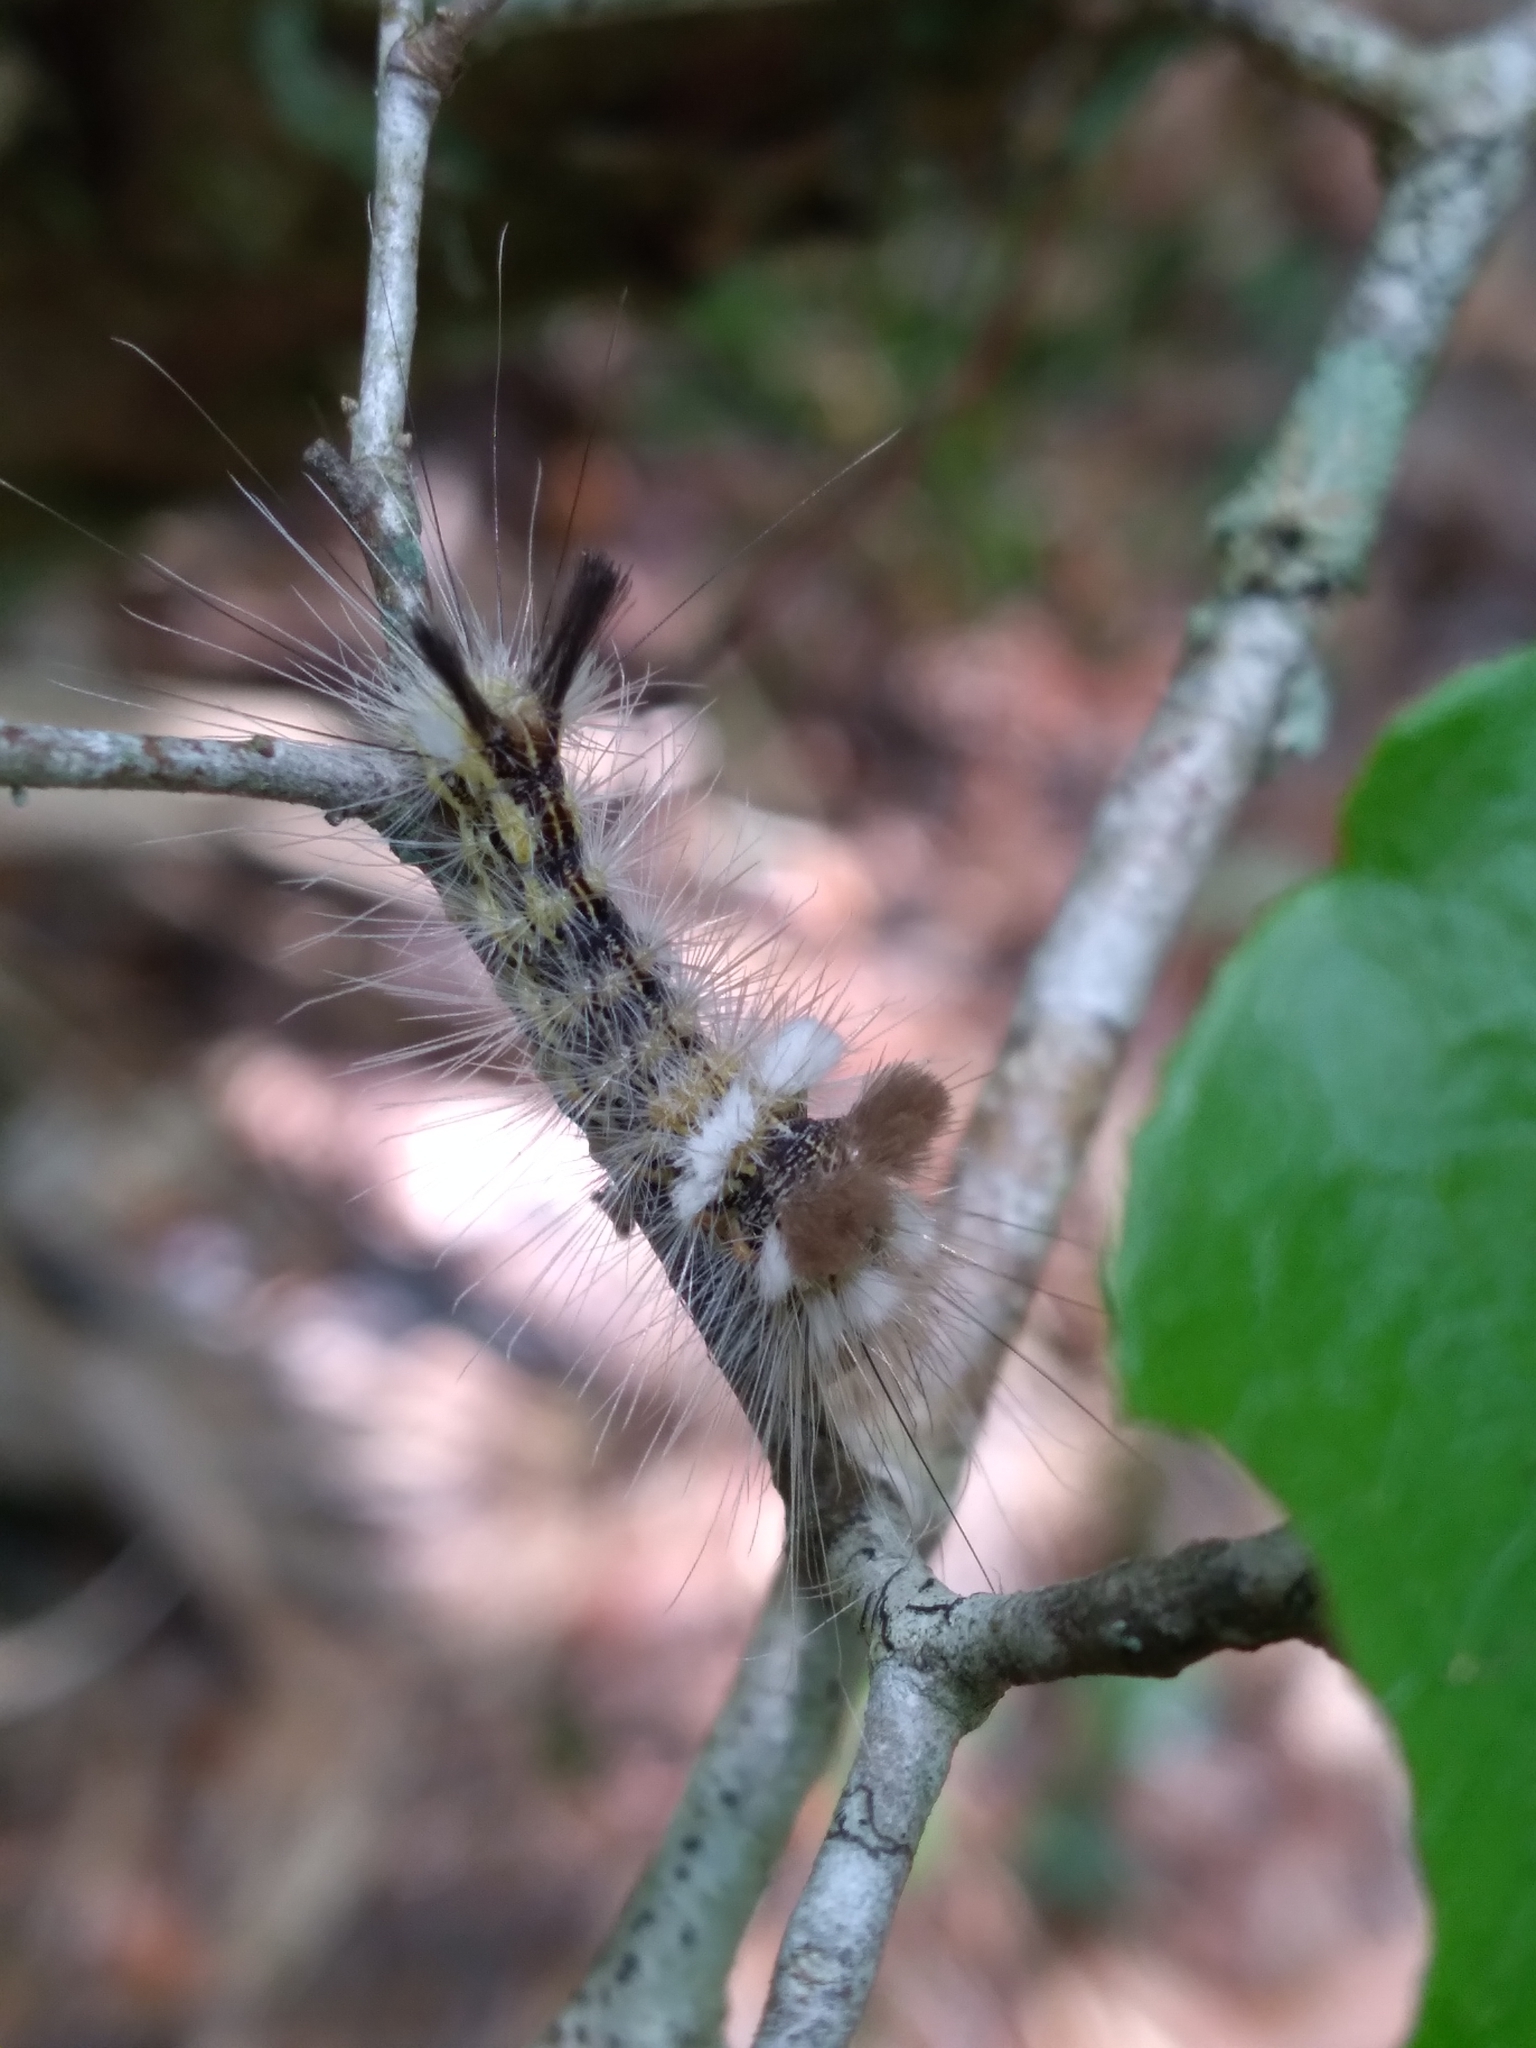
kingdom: Animalia
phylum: Arthropoda
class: Insecta
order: Lepidoptera
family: Noctuidae
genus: Acronicta
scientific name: Acronicta impleta
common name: Powdered dagger
